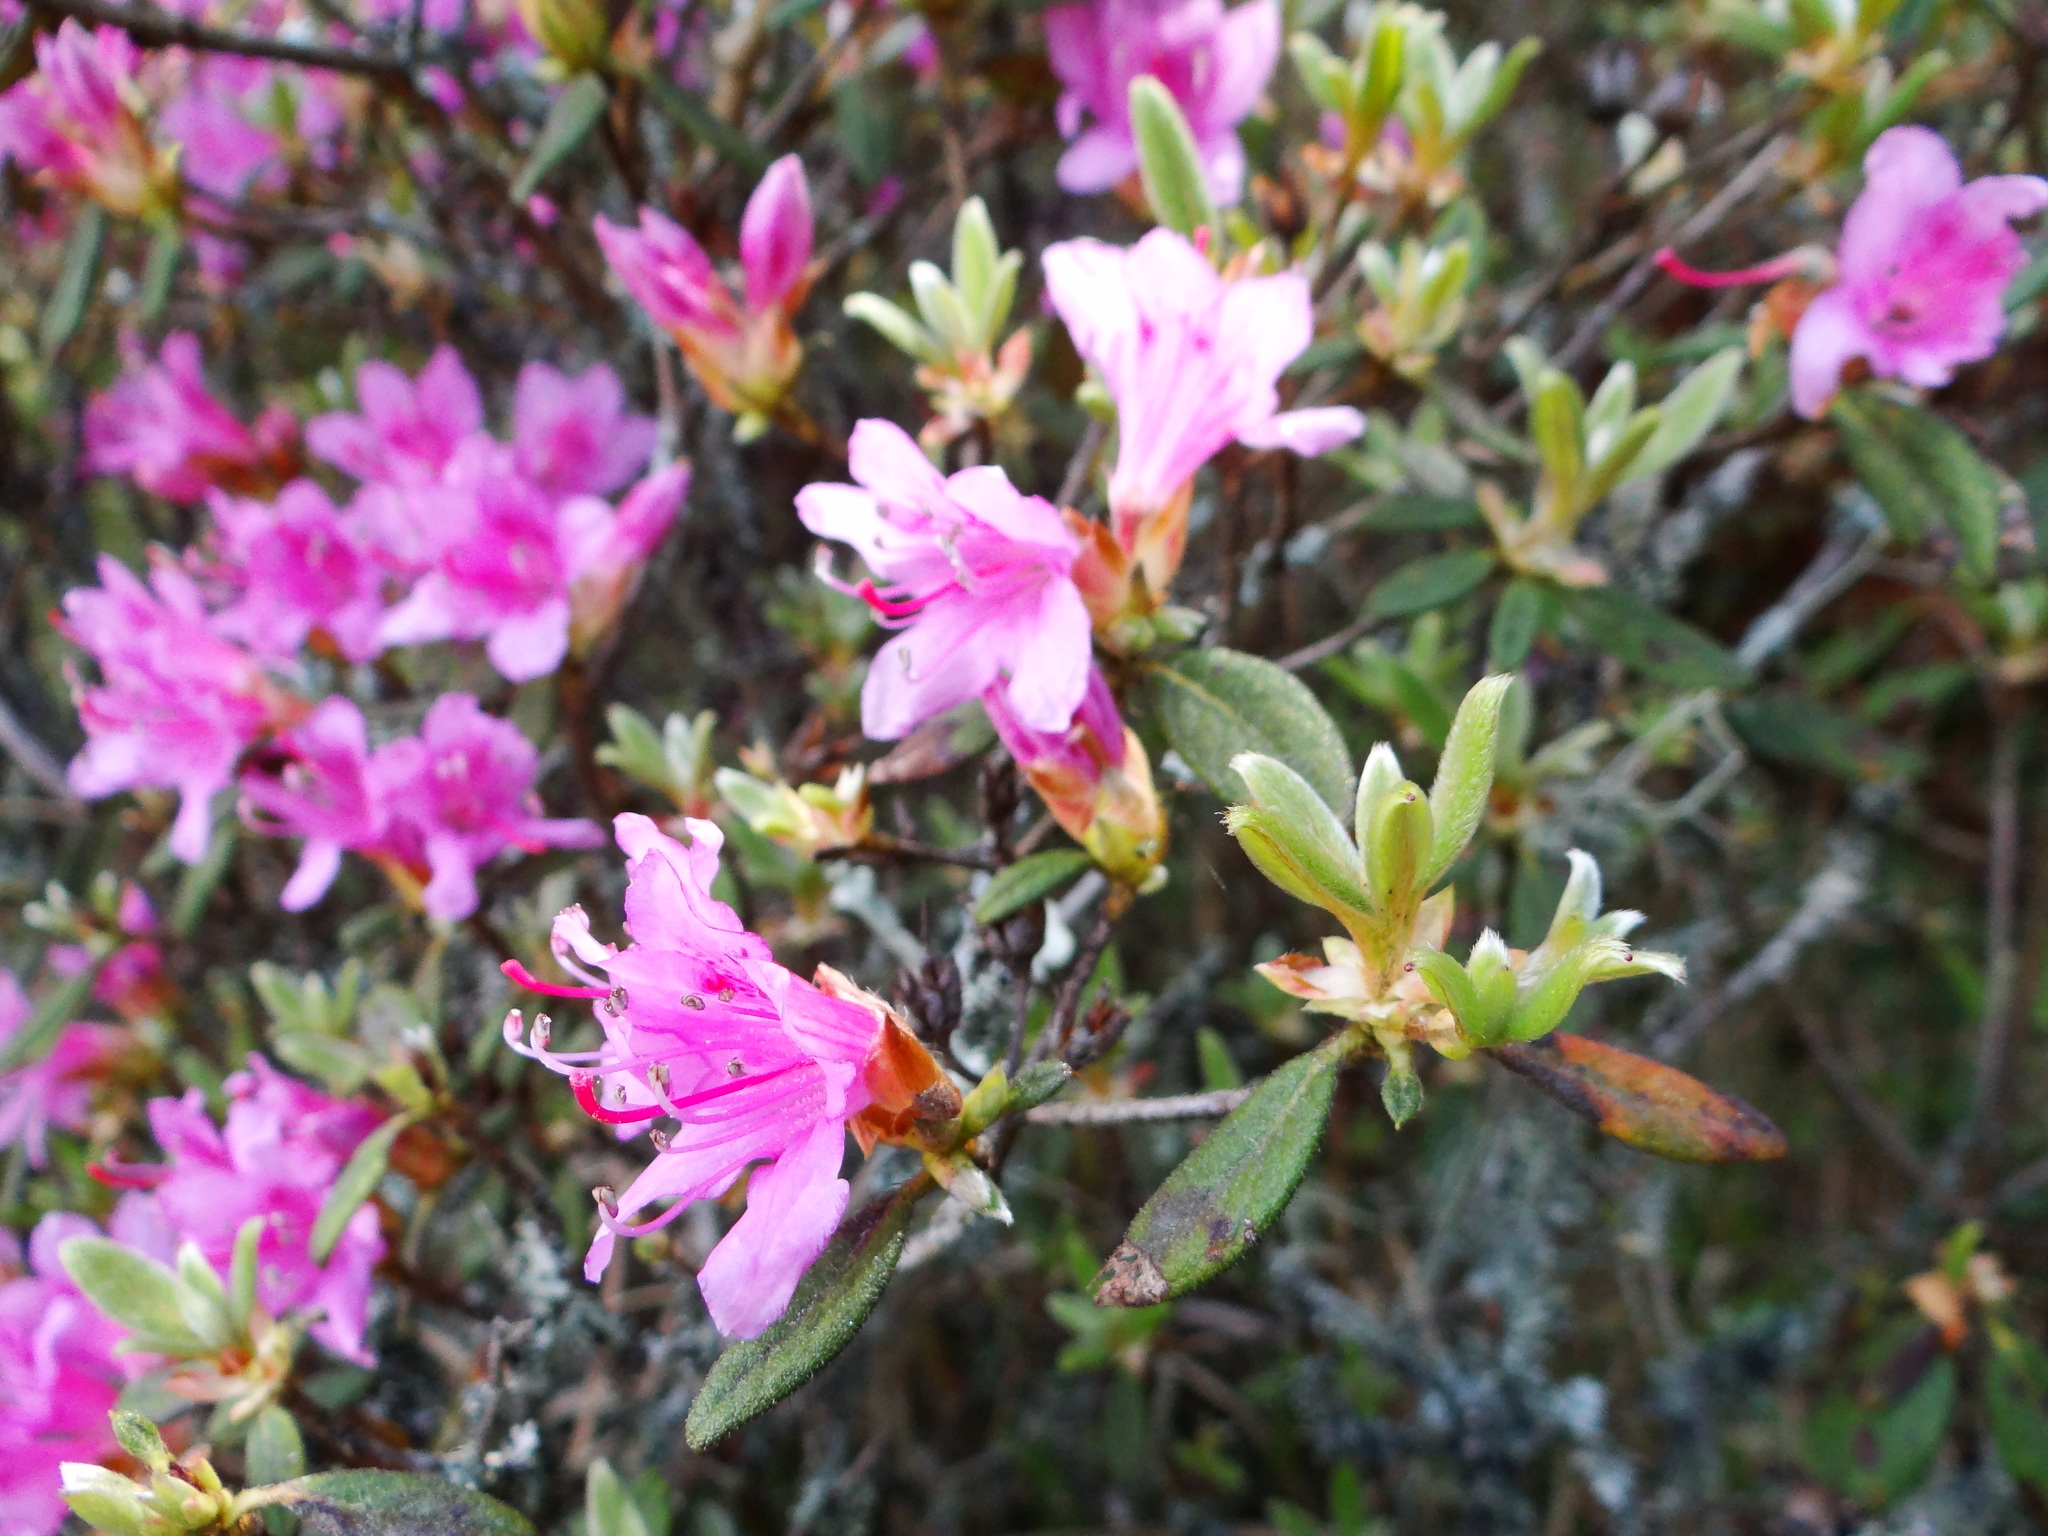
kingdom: Plantae
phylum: Tracheophyta
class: Magnoliopsida
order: Ericales
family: Ericaceae
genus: Rhododendron
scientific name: Rhododendron taiwanalpinum
